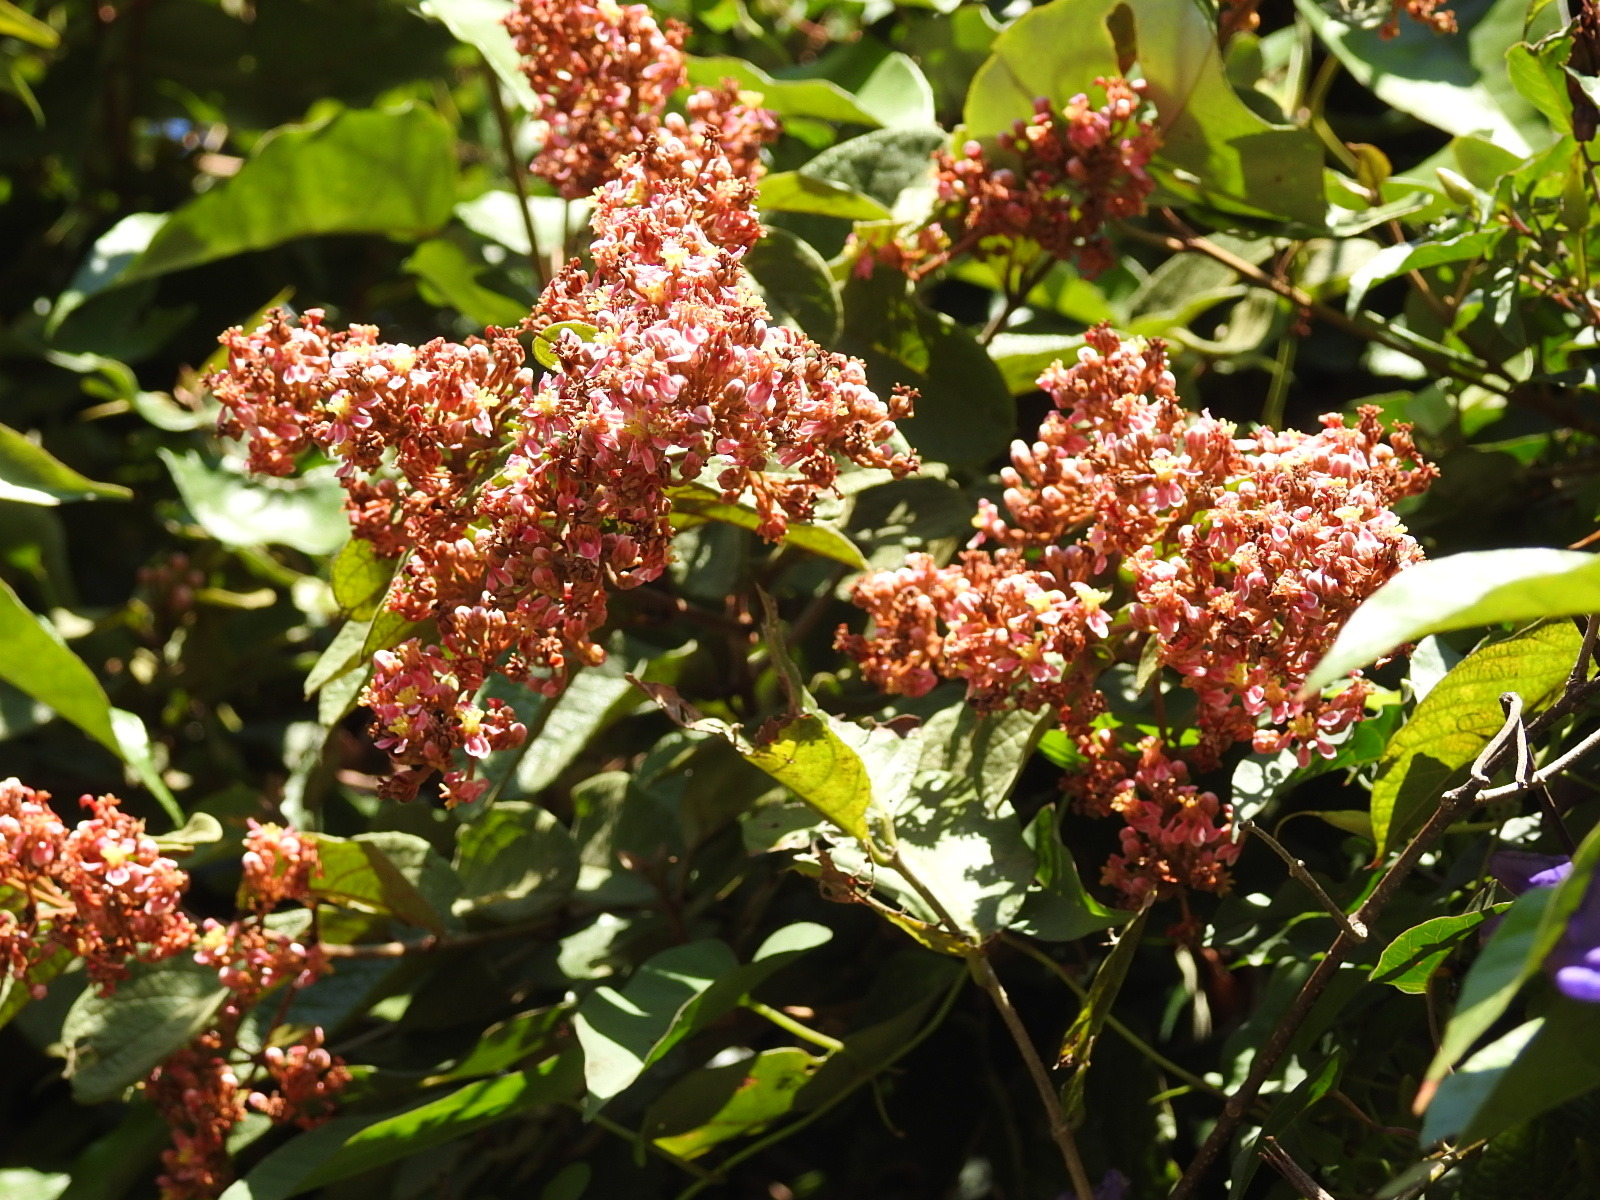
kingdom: Plantae
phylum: Tracheophyta
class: Magnoliopsida
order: Malpighiales
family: Malpighiaceae
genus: Heteropterys
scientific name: Heteropterys brachiata
